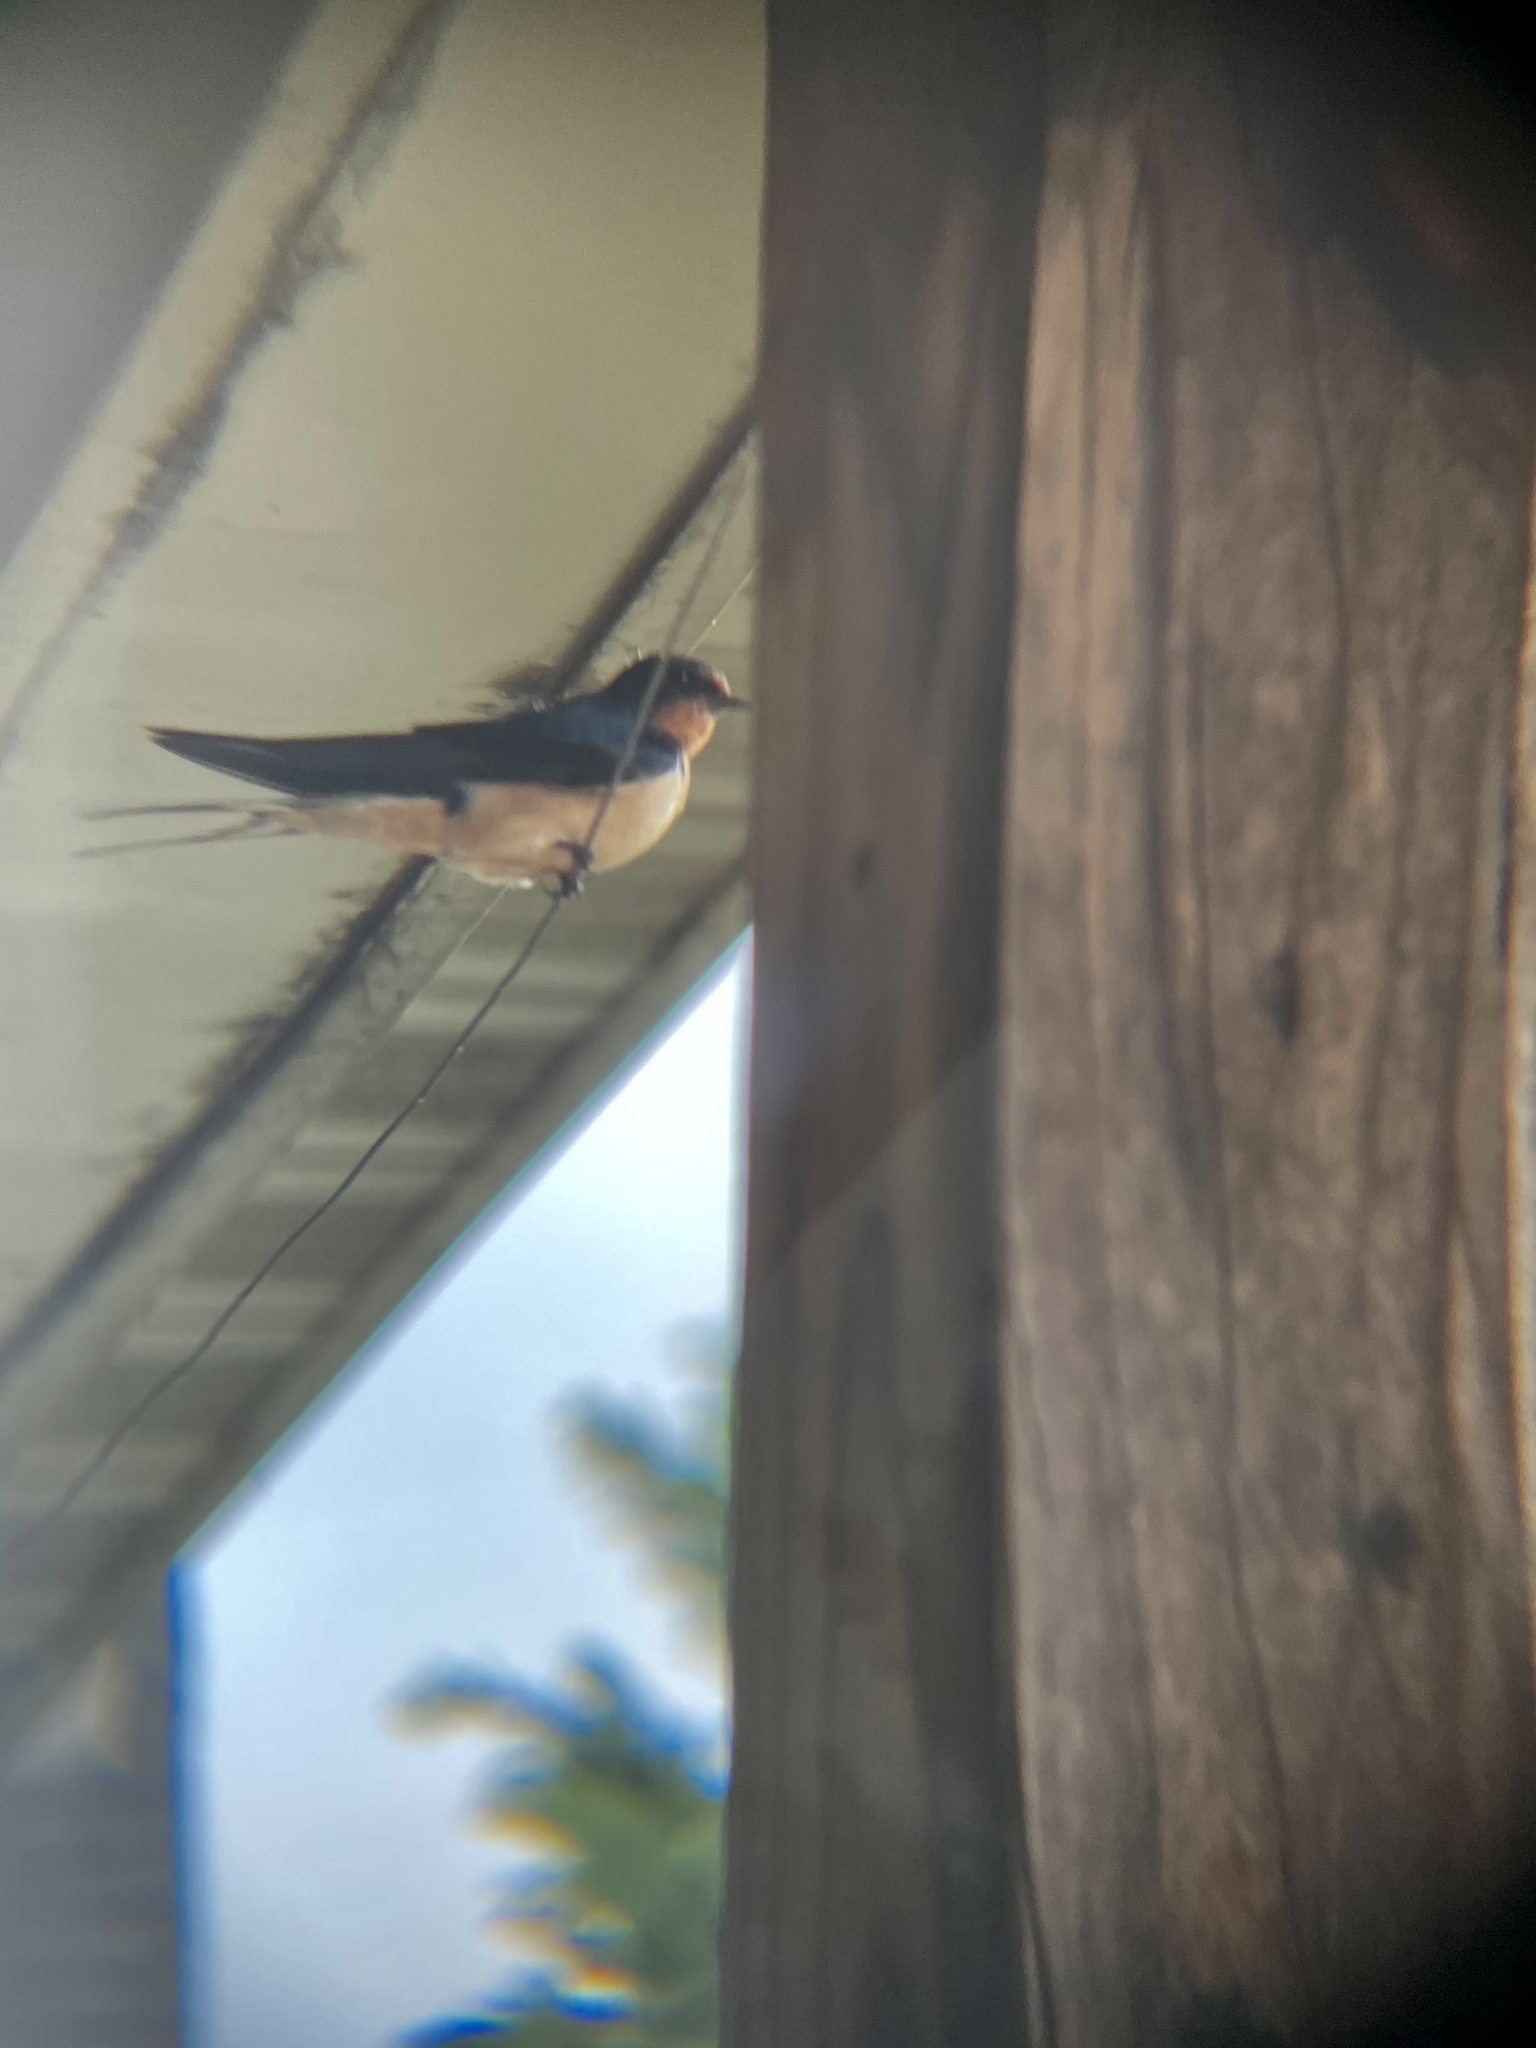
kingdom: Animalia
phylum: Chordata
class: Aves
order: Passeriformes
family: Hirundinidae
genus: Hirundo
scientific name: Hirundo rustica
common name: Barn swallow
